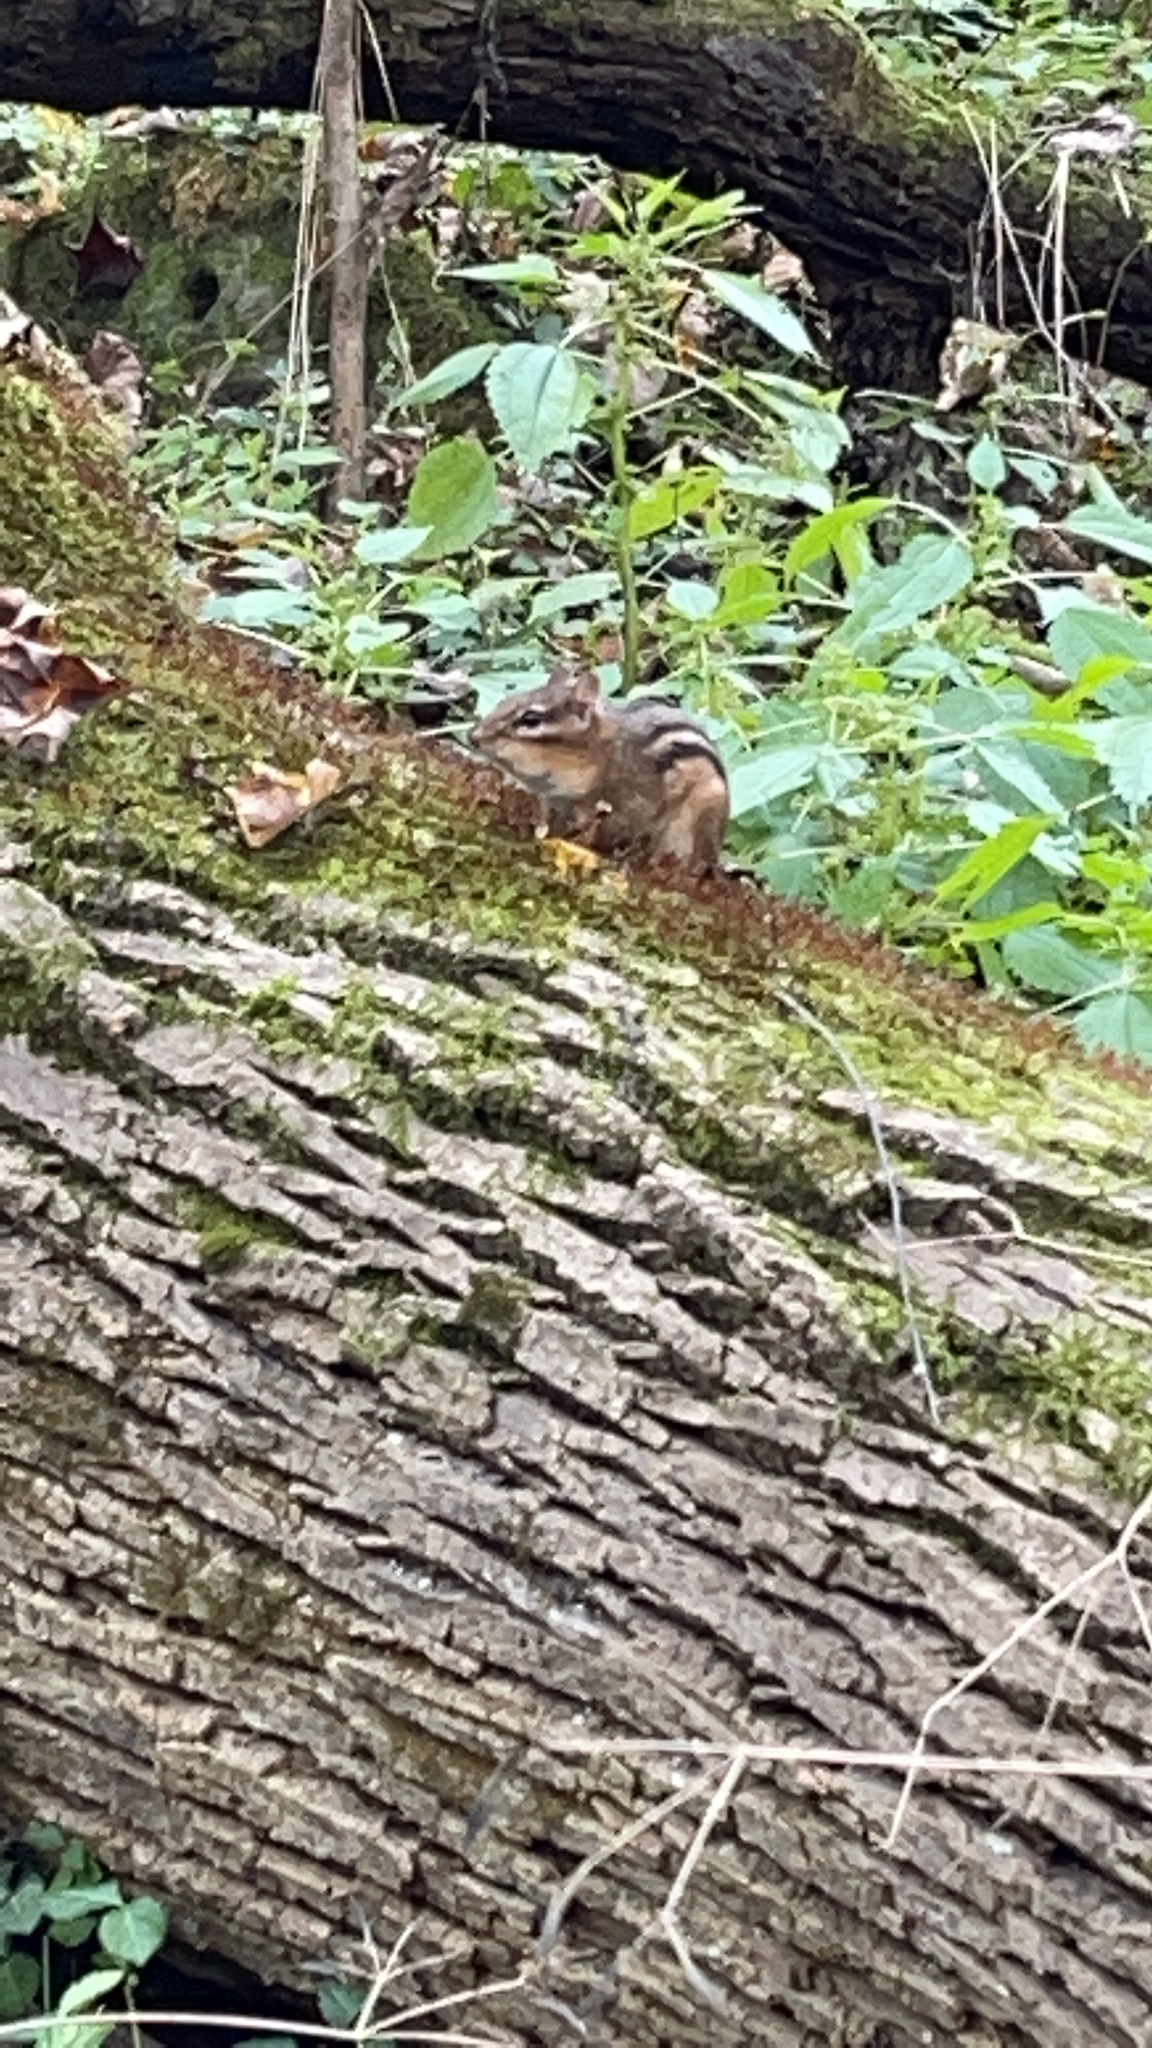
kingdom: Animalia
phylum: Chordata
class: Mammalia
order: Rodentia
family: Sciuridae
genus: Tamias
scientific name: Tamias striatus
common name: Eastern chipmunk
